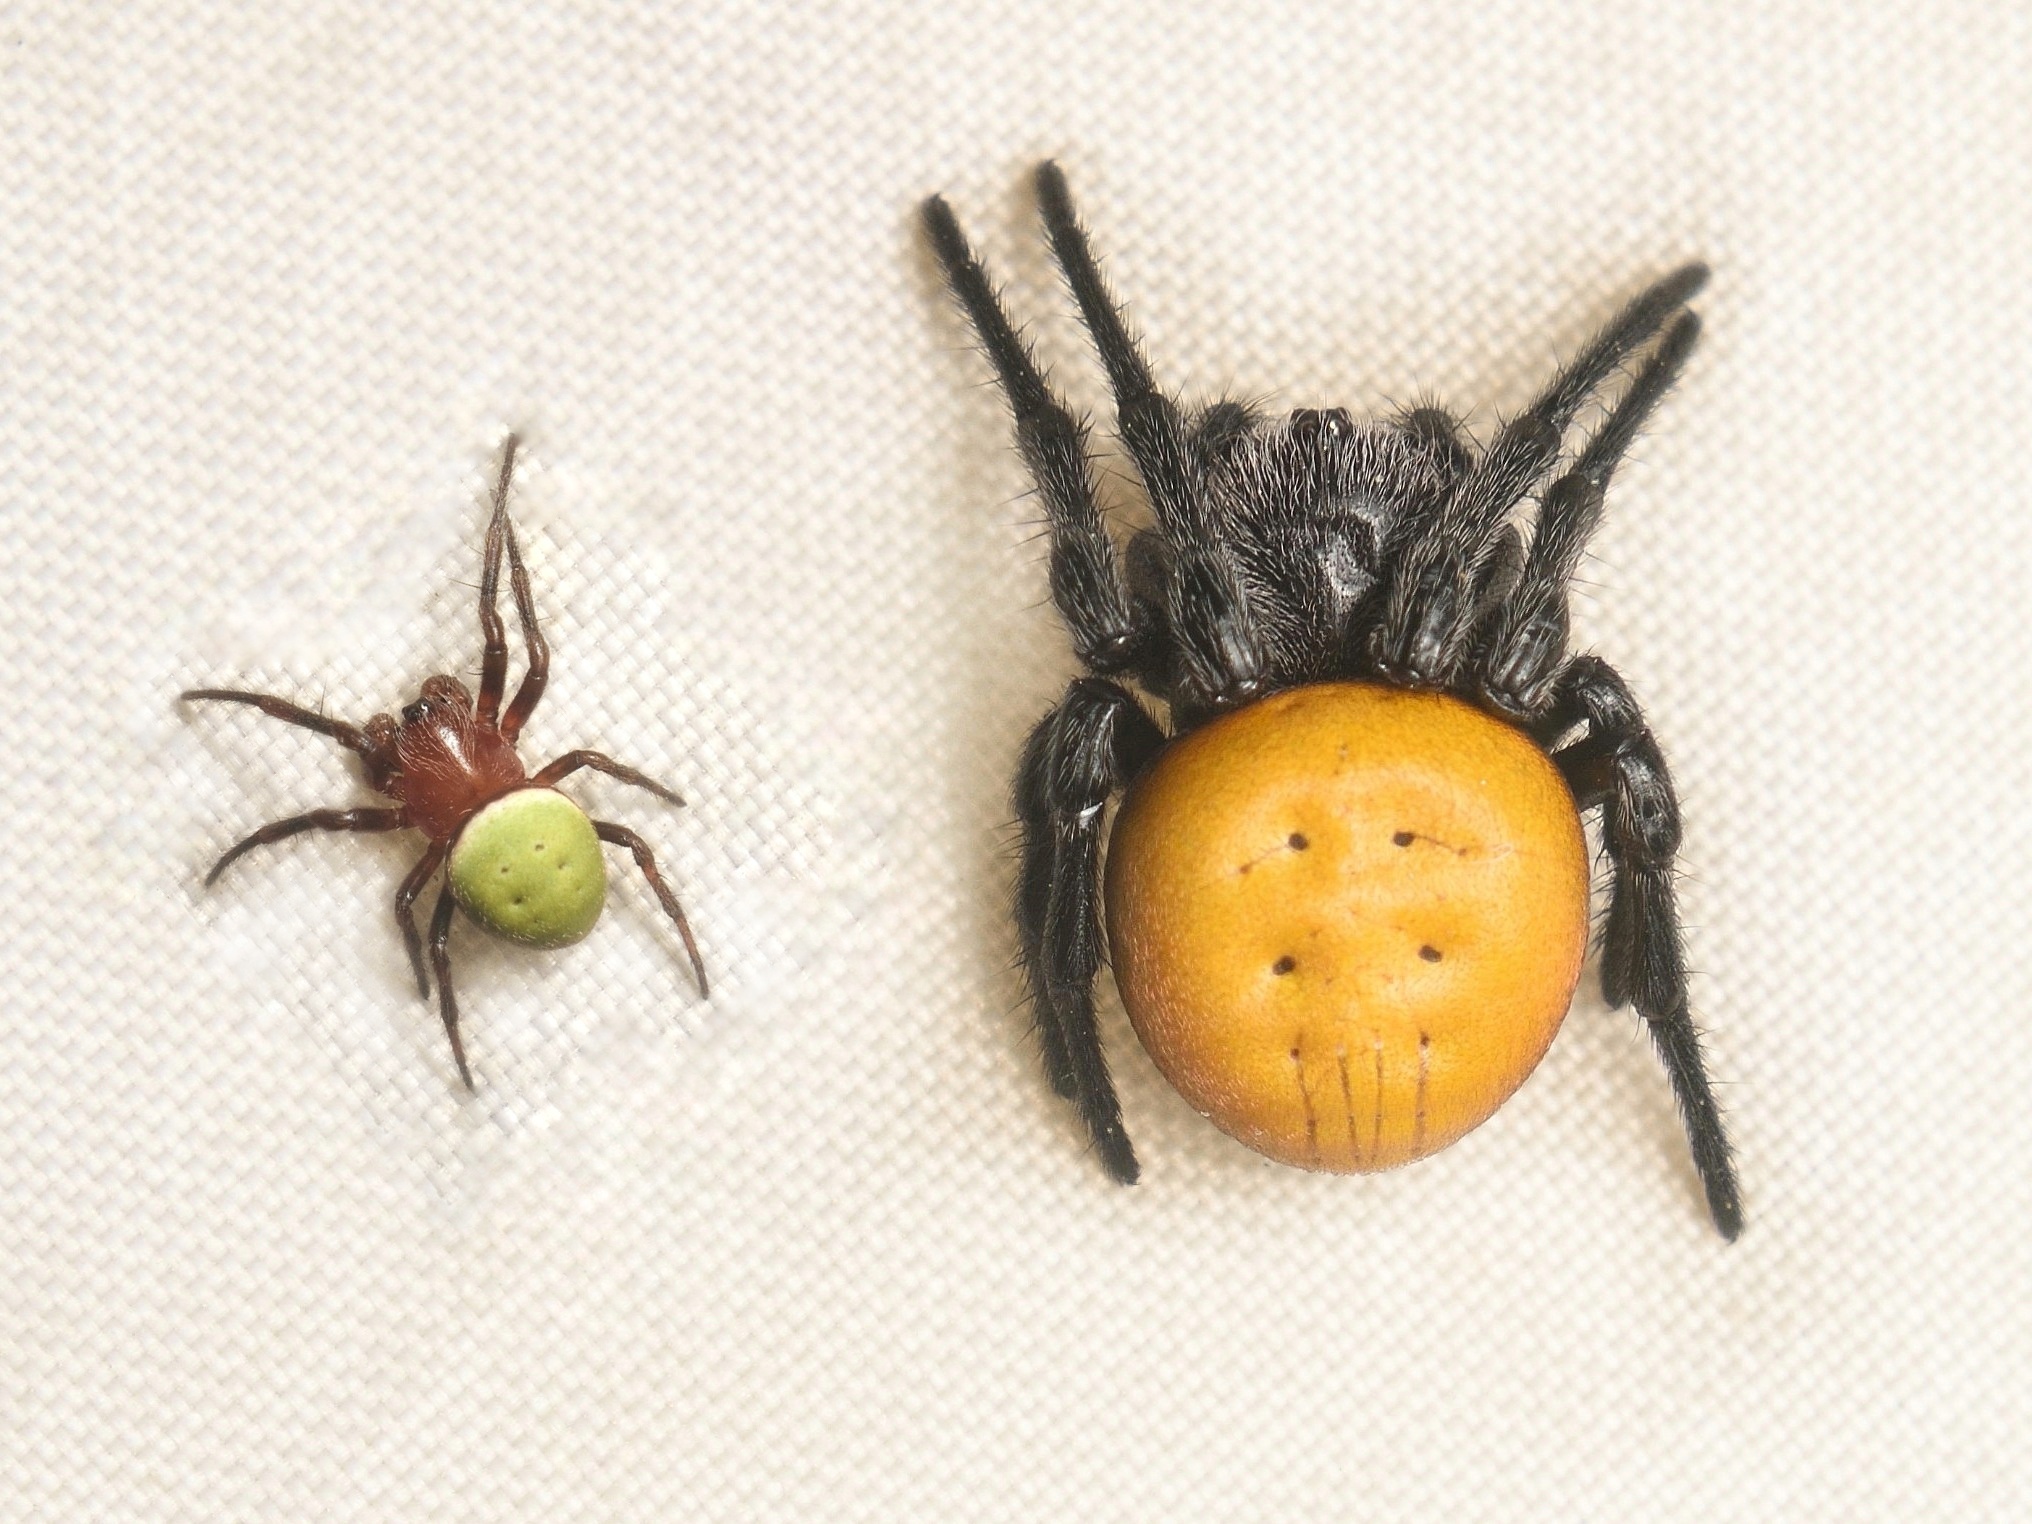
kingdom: Animalia
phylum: Arthropoda
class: Arachnida
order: Araneae
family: Araneidae
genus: Araneus
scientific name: Araneus sernai
